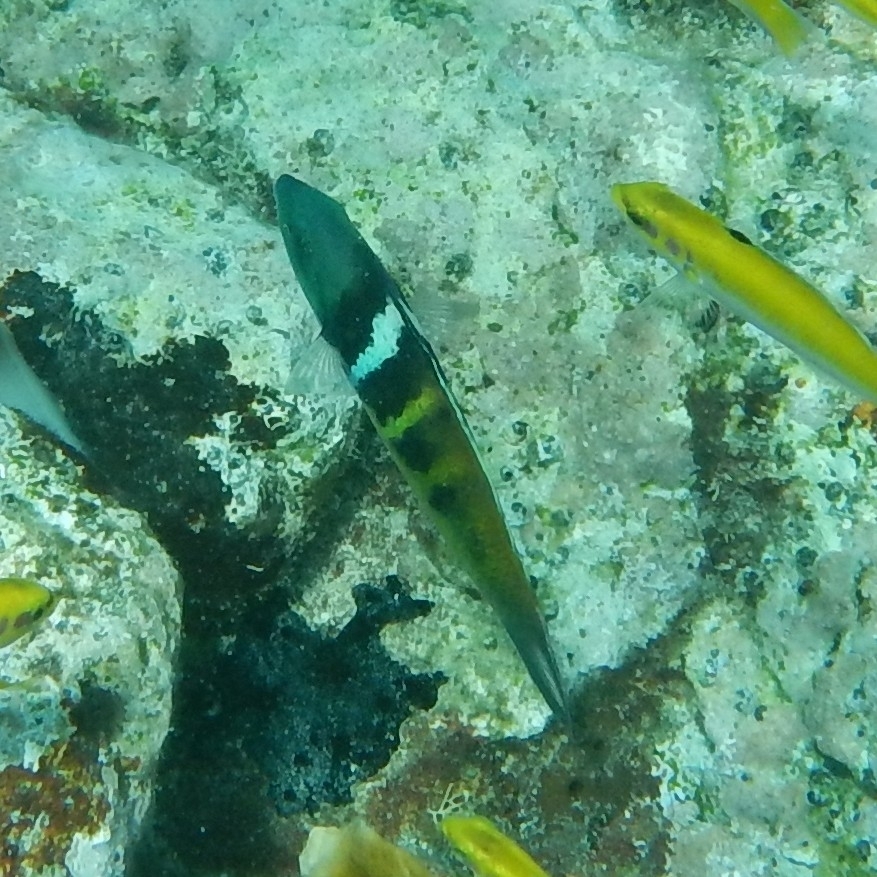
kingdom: Animalia
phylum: Chordata
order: Perciformes
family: Labridae
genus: Thalassoma
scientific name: Thalassoma bifasciatum
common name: Bluehead wrasse
